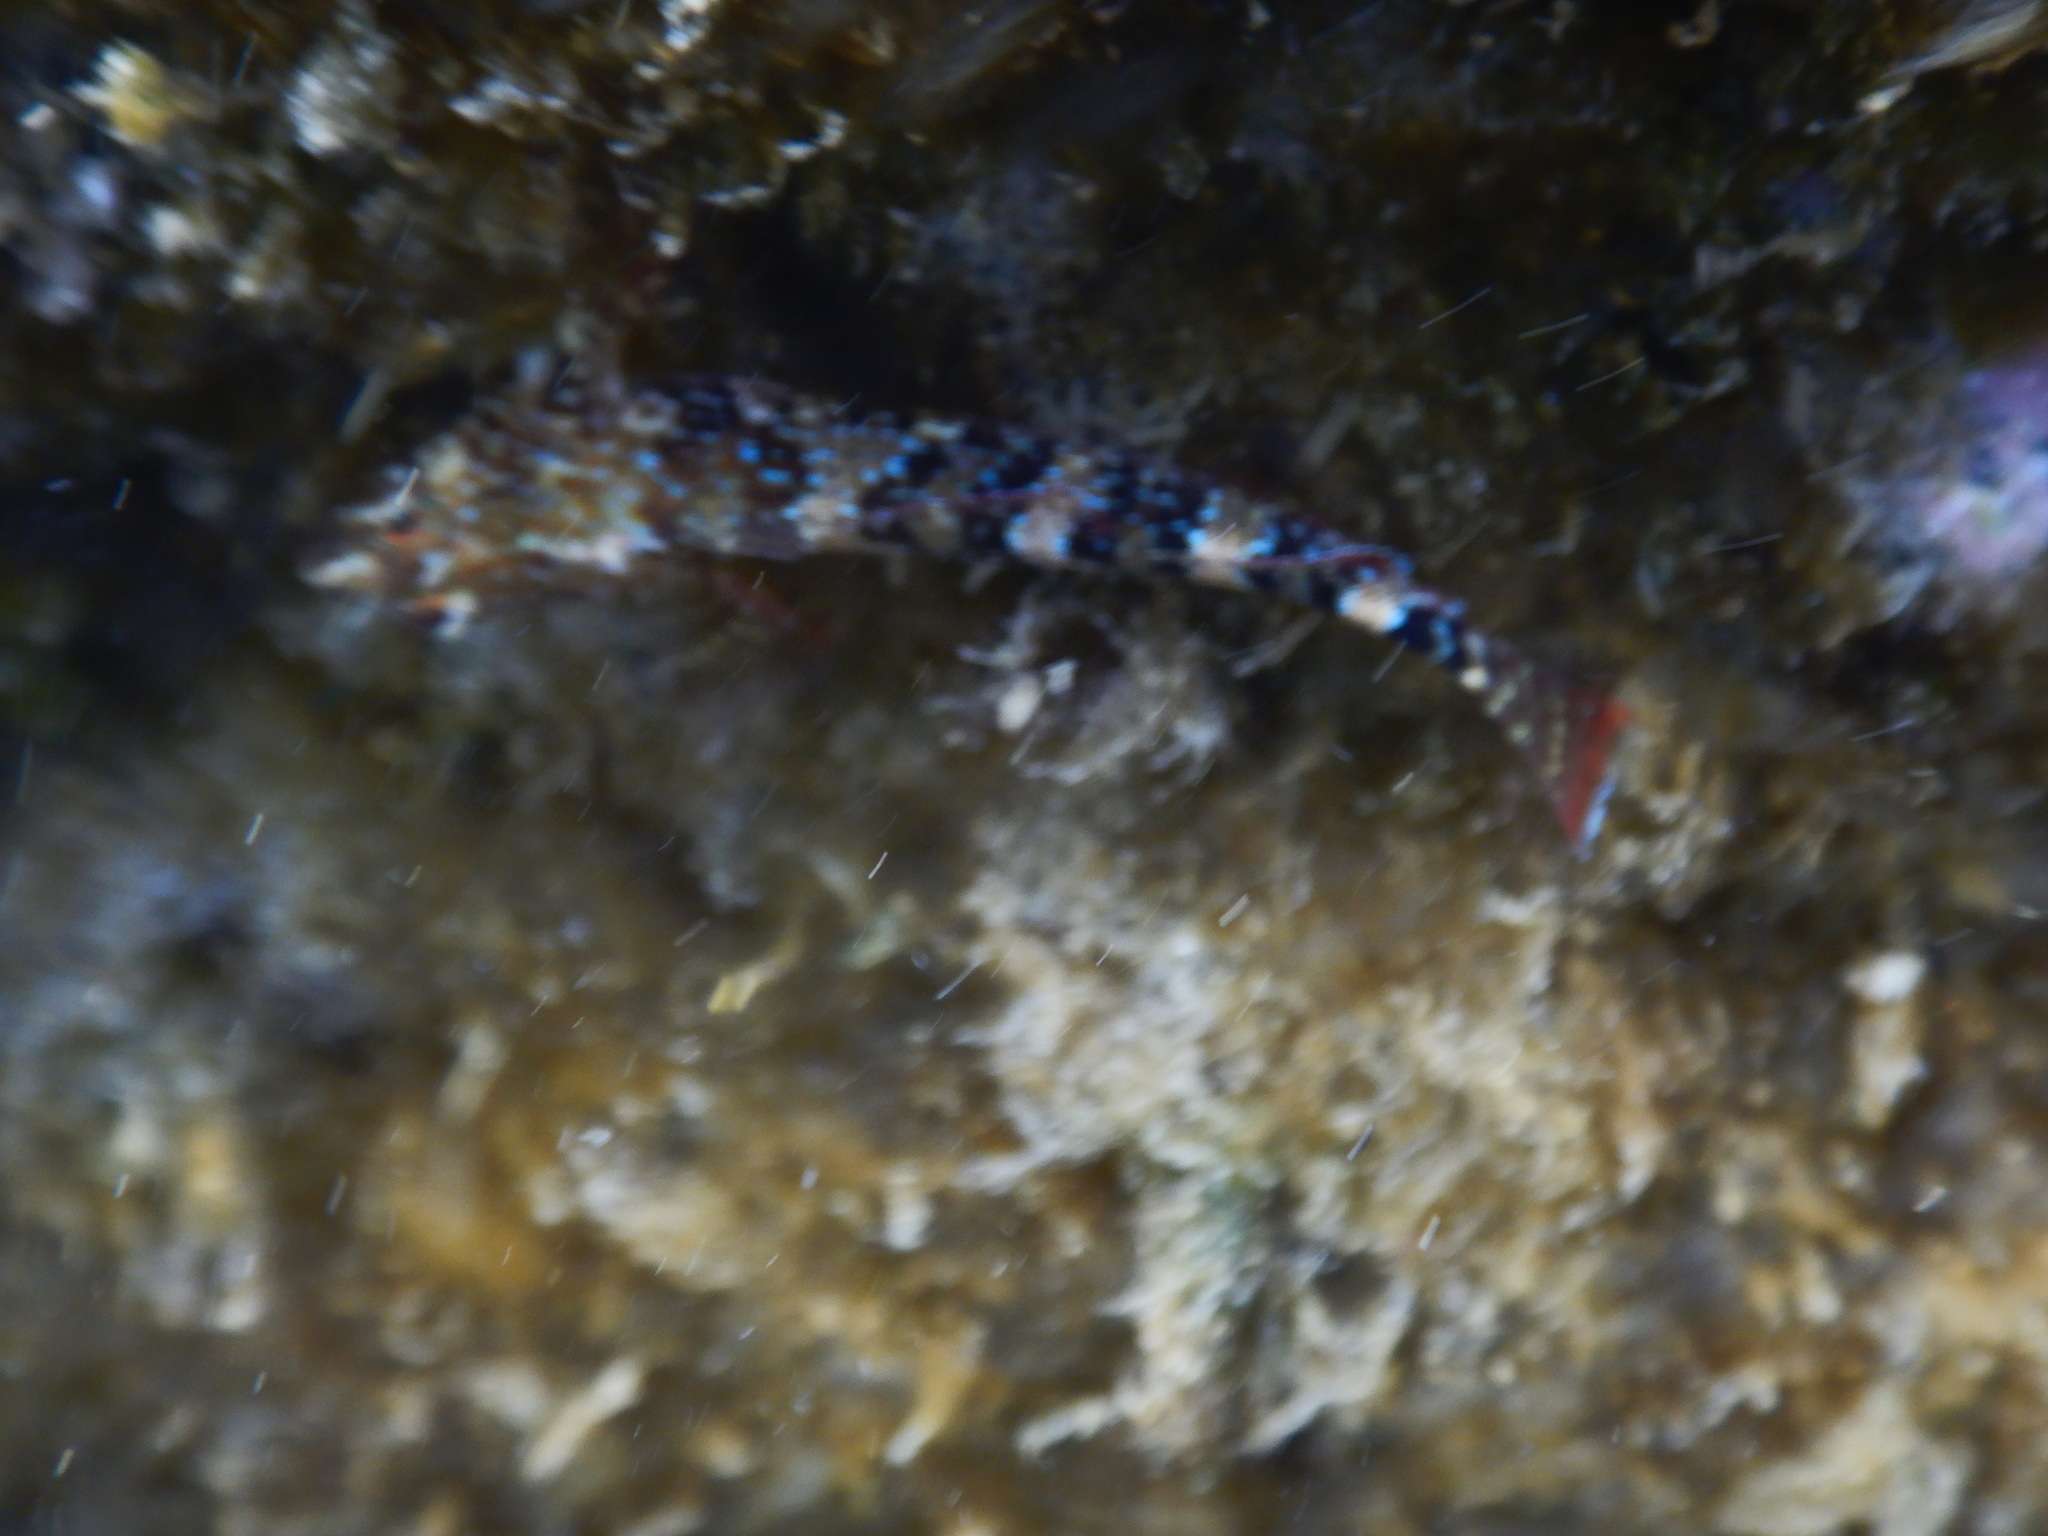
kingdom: Animalia
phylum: Chordata
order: Perciformes
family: Tripterygiidae
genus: Tripterygion
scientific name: Tripterygion tripteronotum
